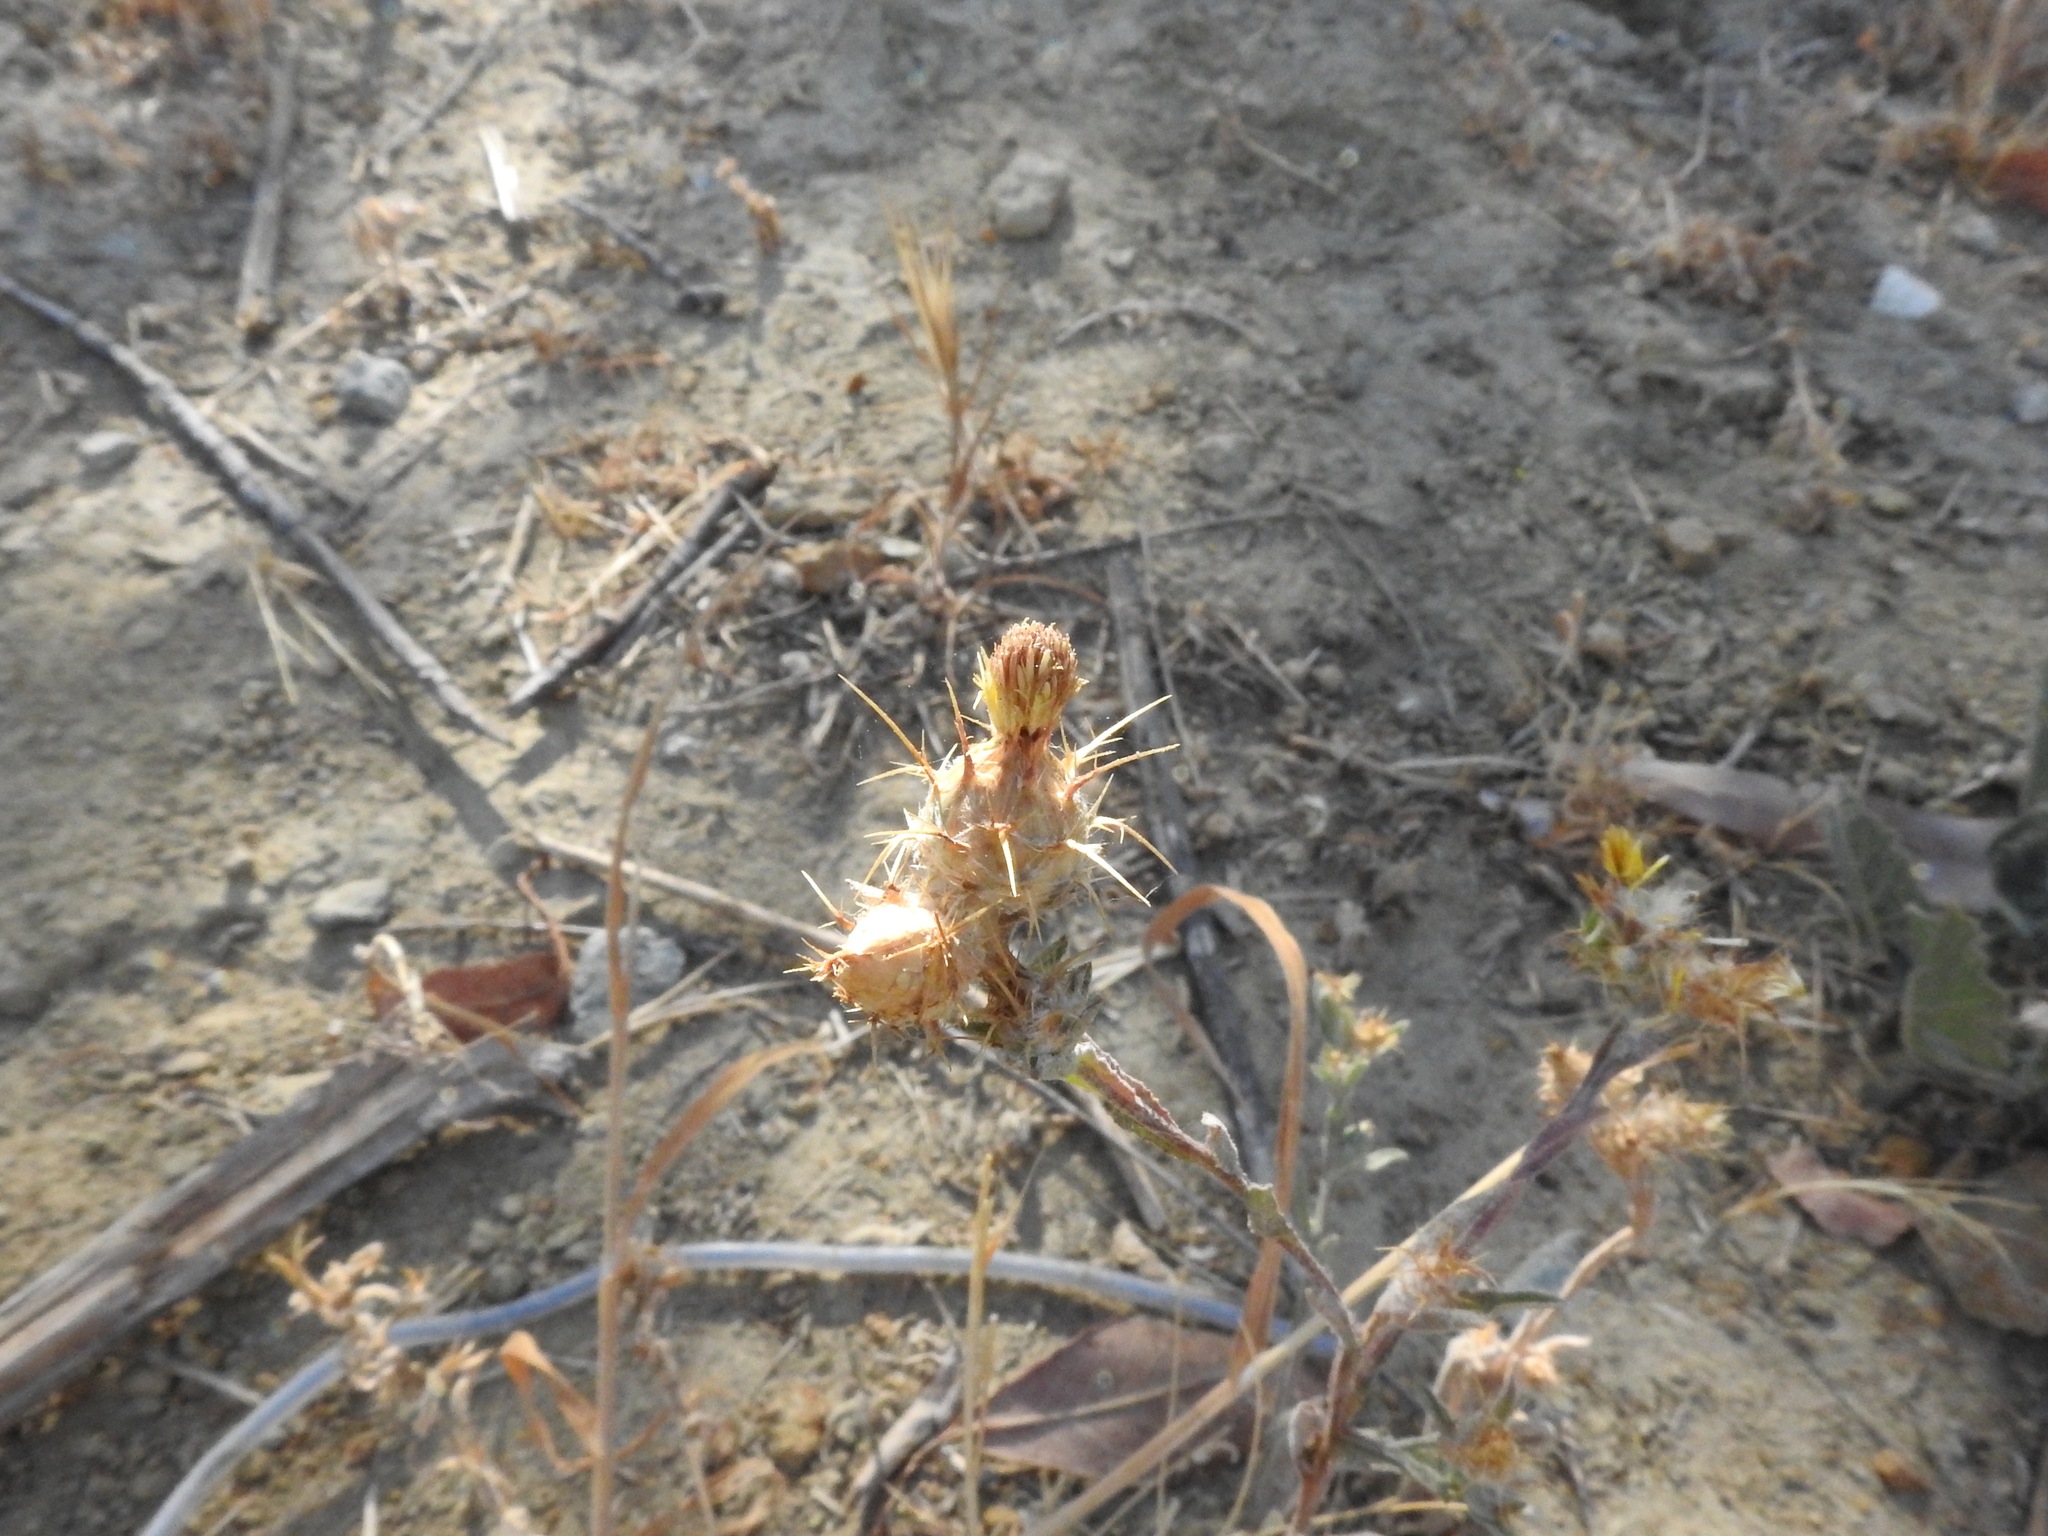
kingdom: Plantae
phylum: Tracheophyta
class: Magnoliopsida
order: Asterales
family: Asteraceae
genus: Centaurea
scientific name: Centaurea melitensis
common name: Maltese star-thistle
